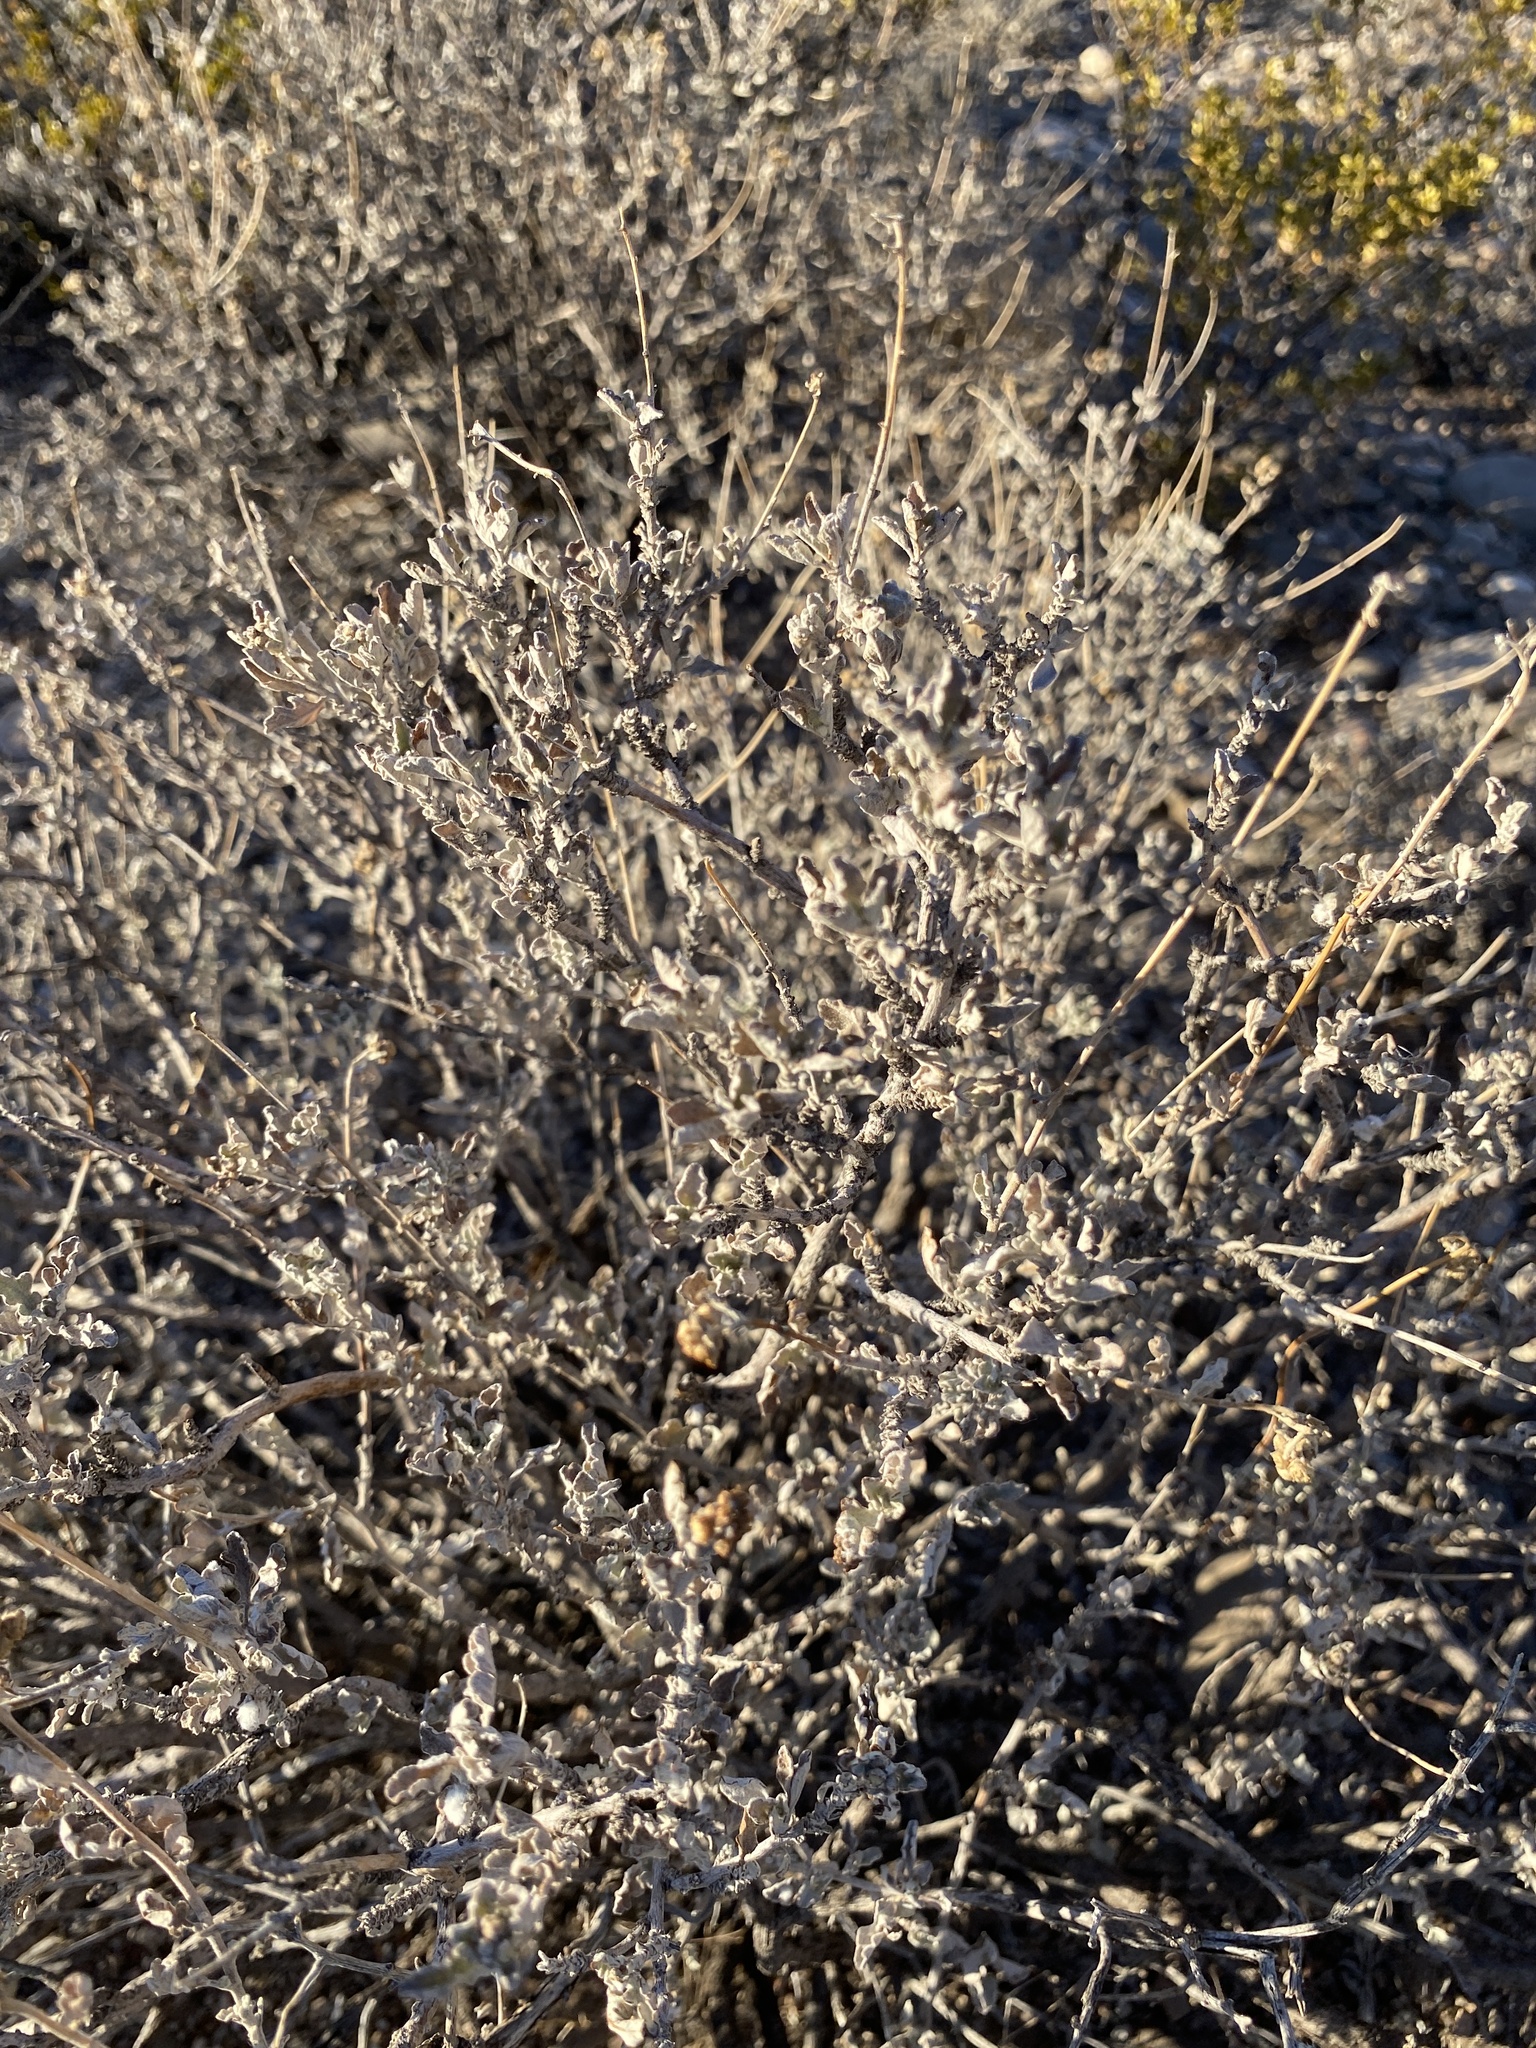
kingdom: Plantae
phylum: Tracheophyta
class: Magnoliopsida
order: Asterales
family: Asteraceae
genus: Parthenium
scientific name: Parthenium incanum
